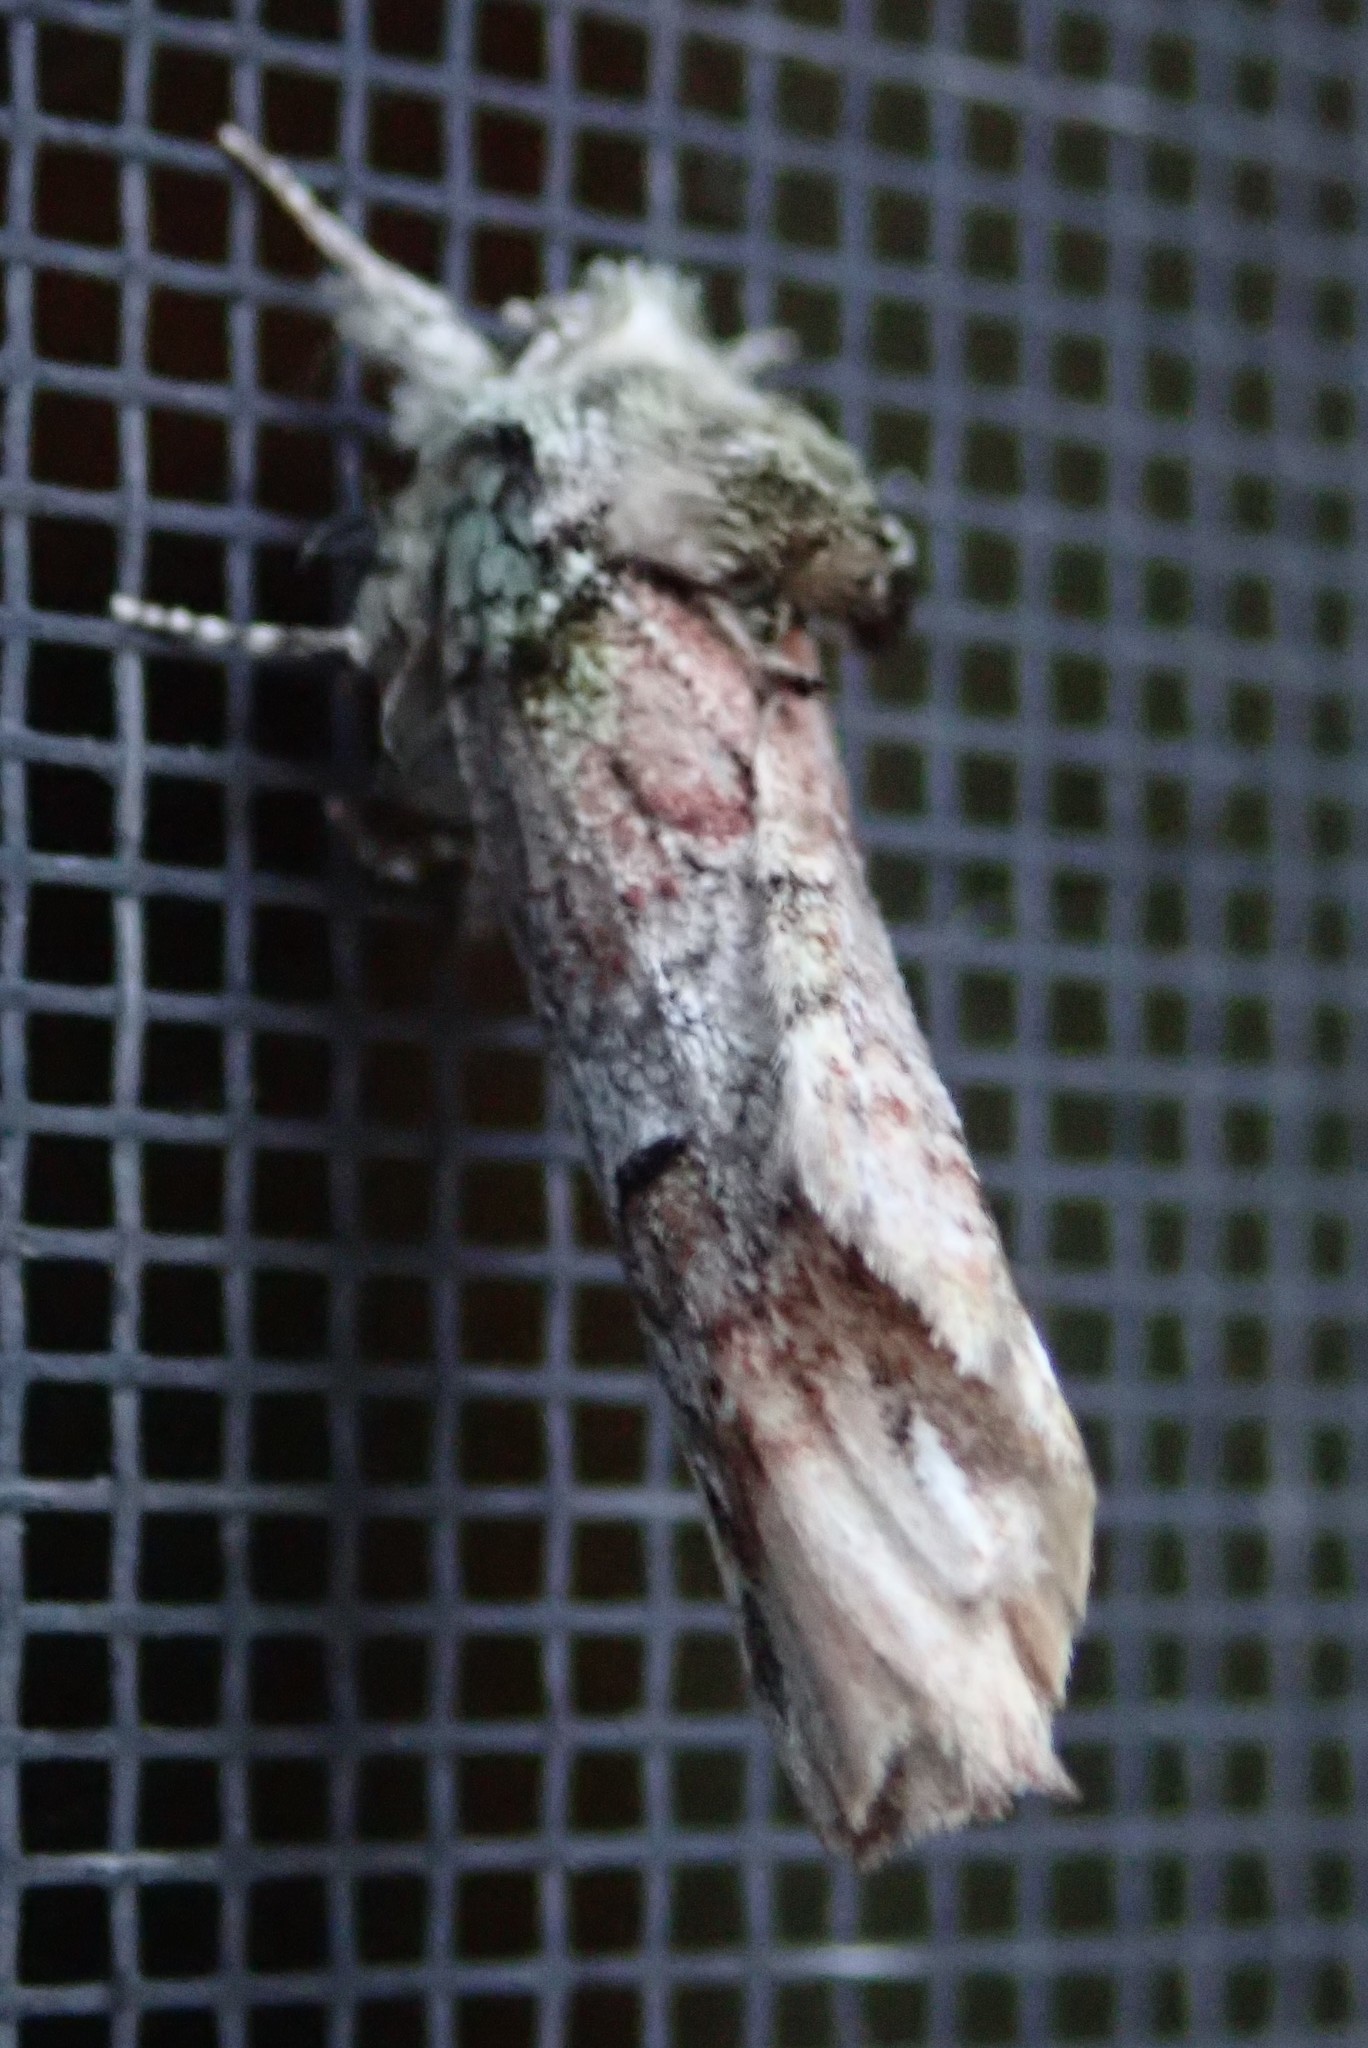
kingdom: Animalia
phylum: Arthropoda
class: Insecta
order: Lepidoptera
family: Notodontidae
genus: Schizura
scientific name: Schizura
